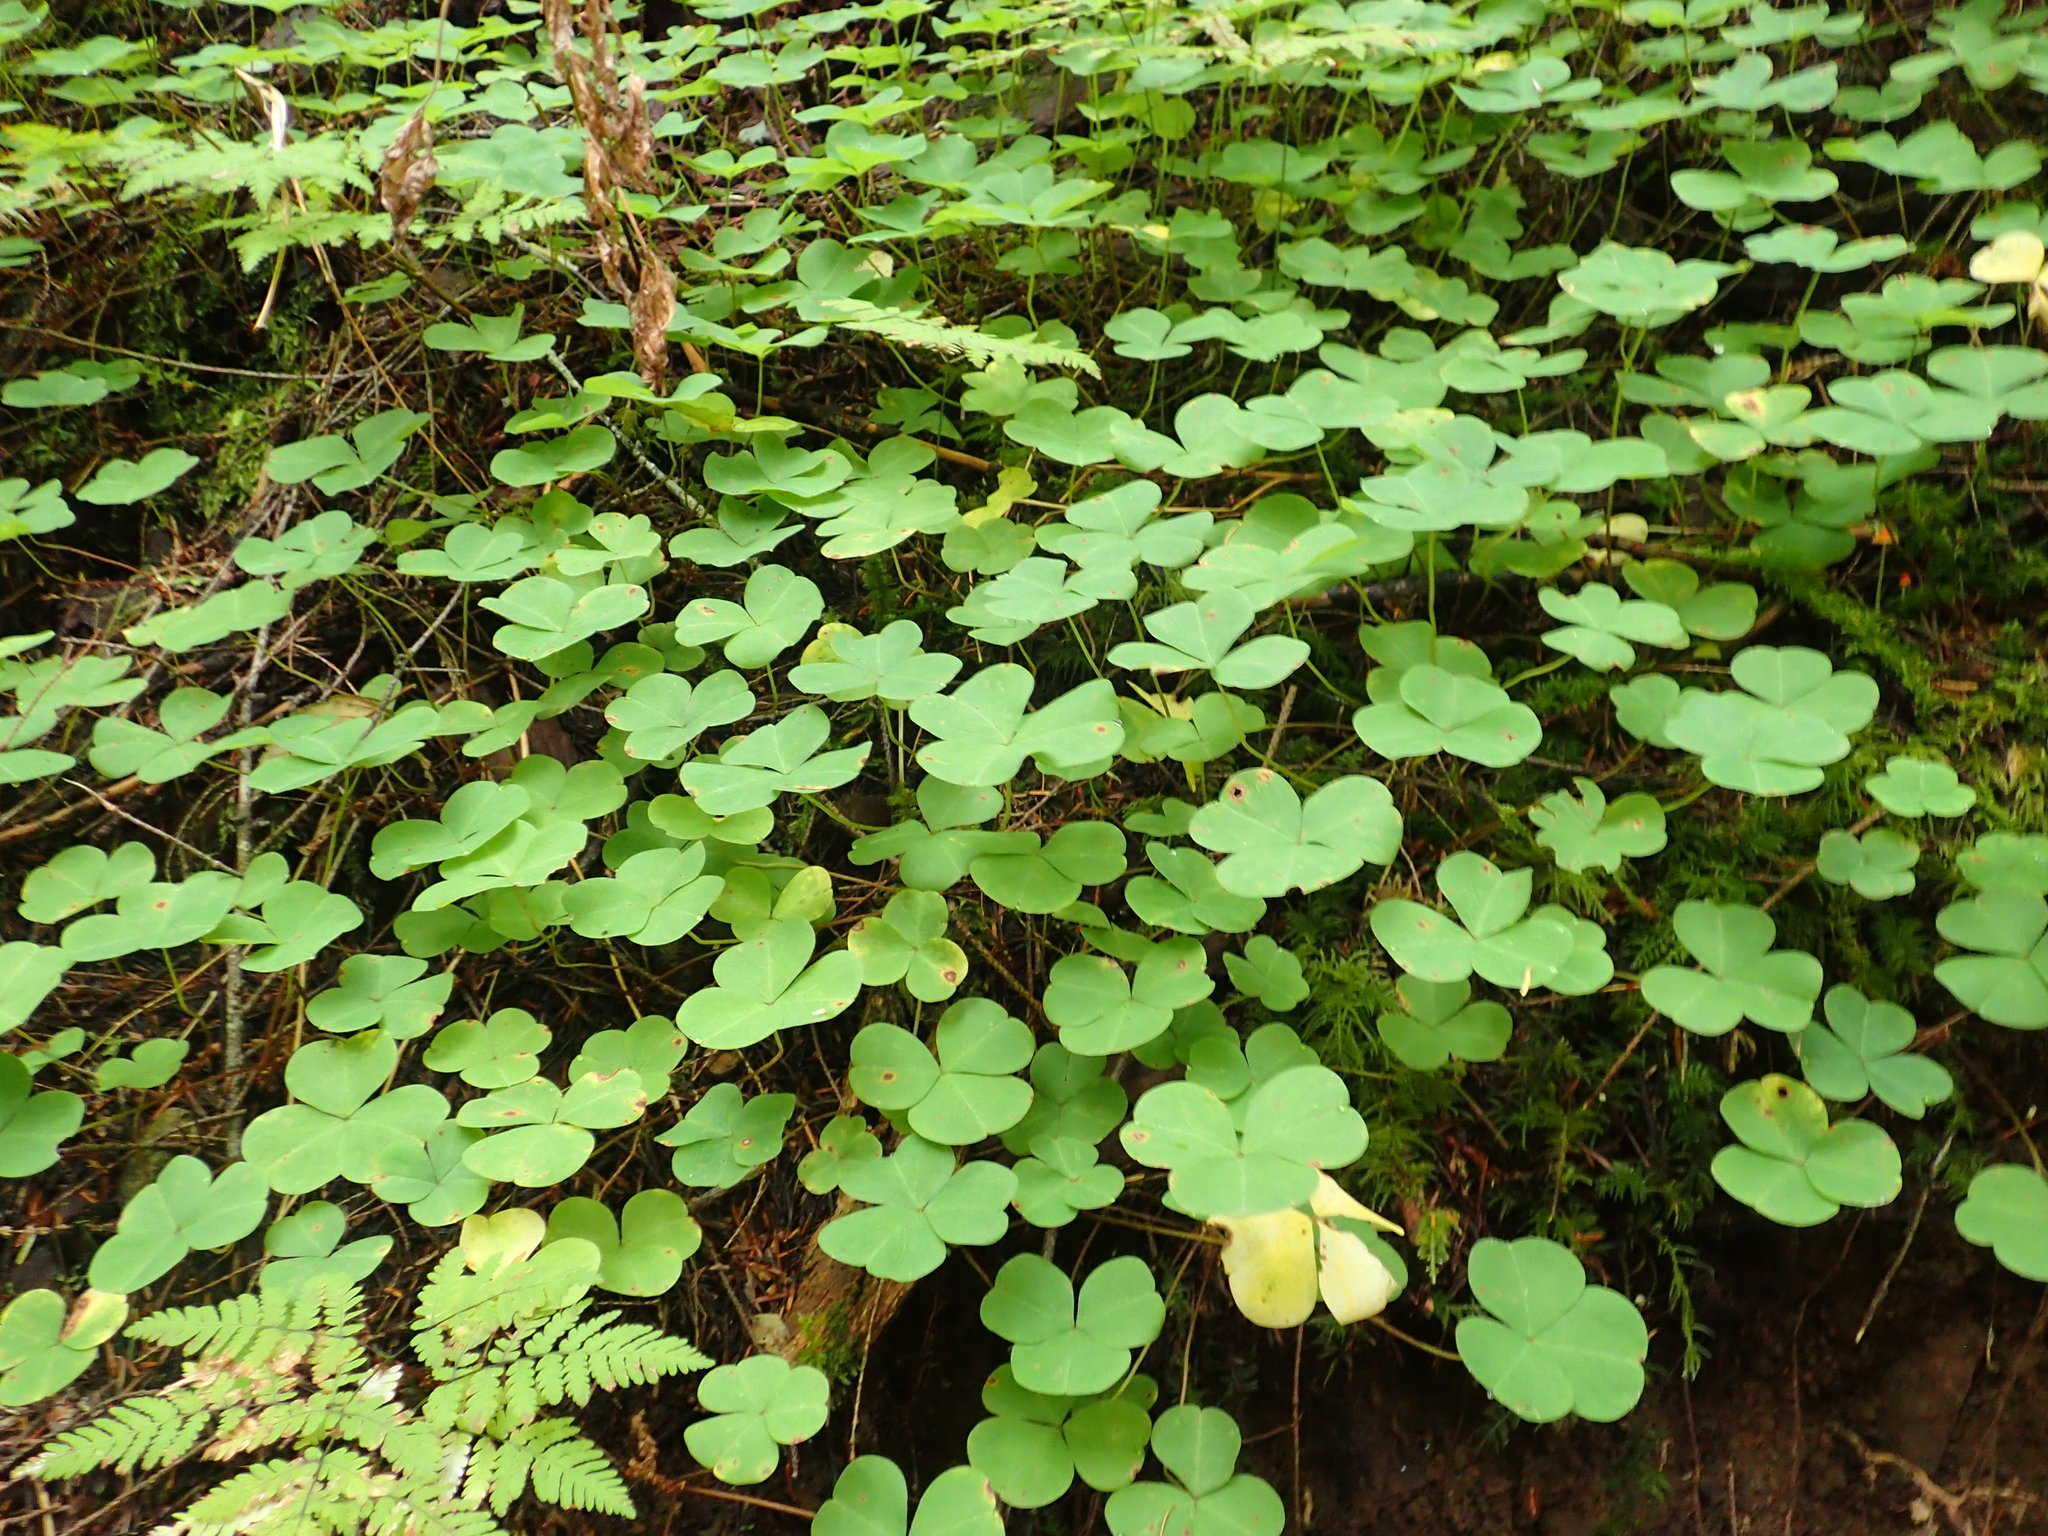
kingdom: Plantae
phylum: Tracheophyta
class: Magnoliopsida
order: Oxalidales
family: Oxalidaceae
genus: Oxalis
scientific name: Oxalis oregana
